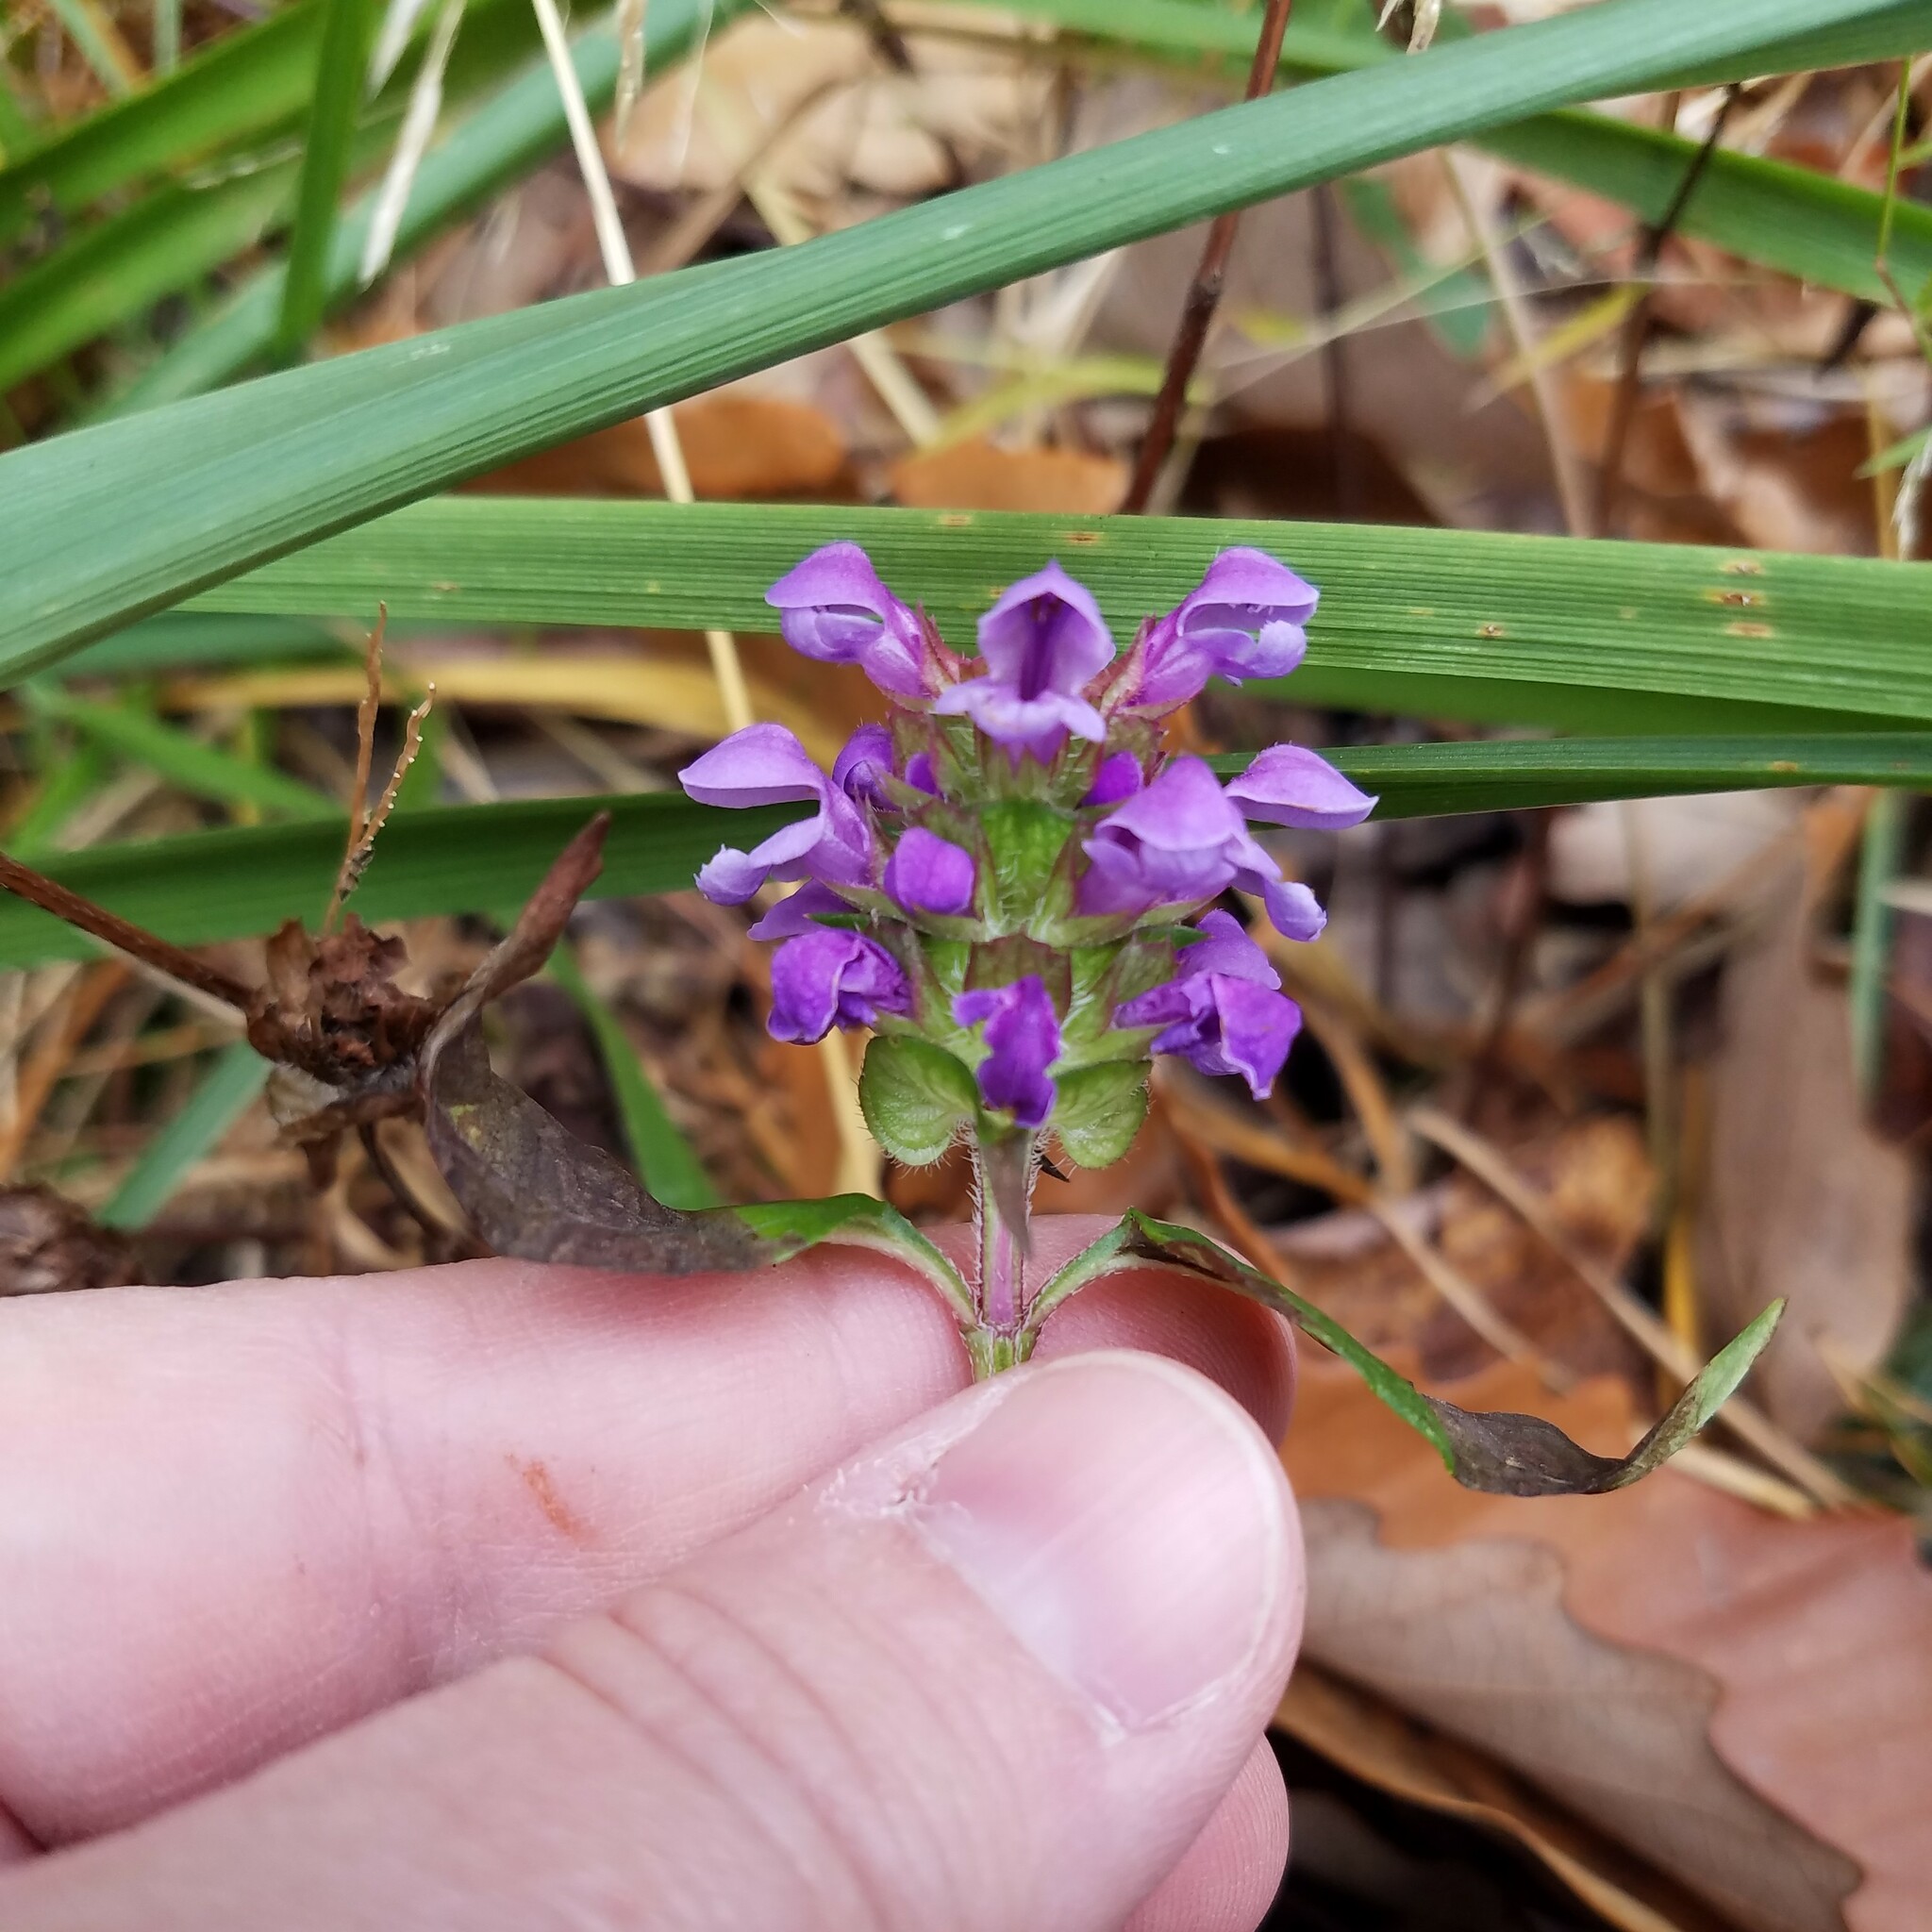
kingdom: Plantae
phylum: Tracheophyta
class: Magnoliopsida
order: Lamiales
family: Lamiaceae
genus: Prunella
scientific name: Prunella vulgaris
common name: Heal-all
